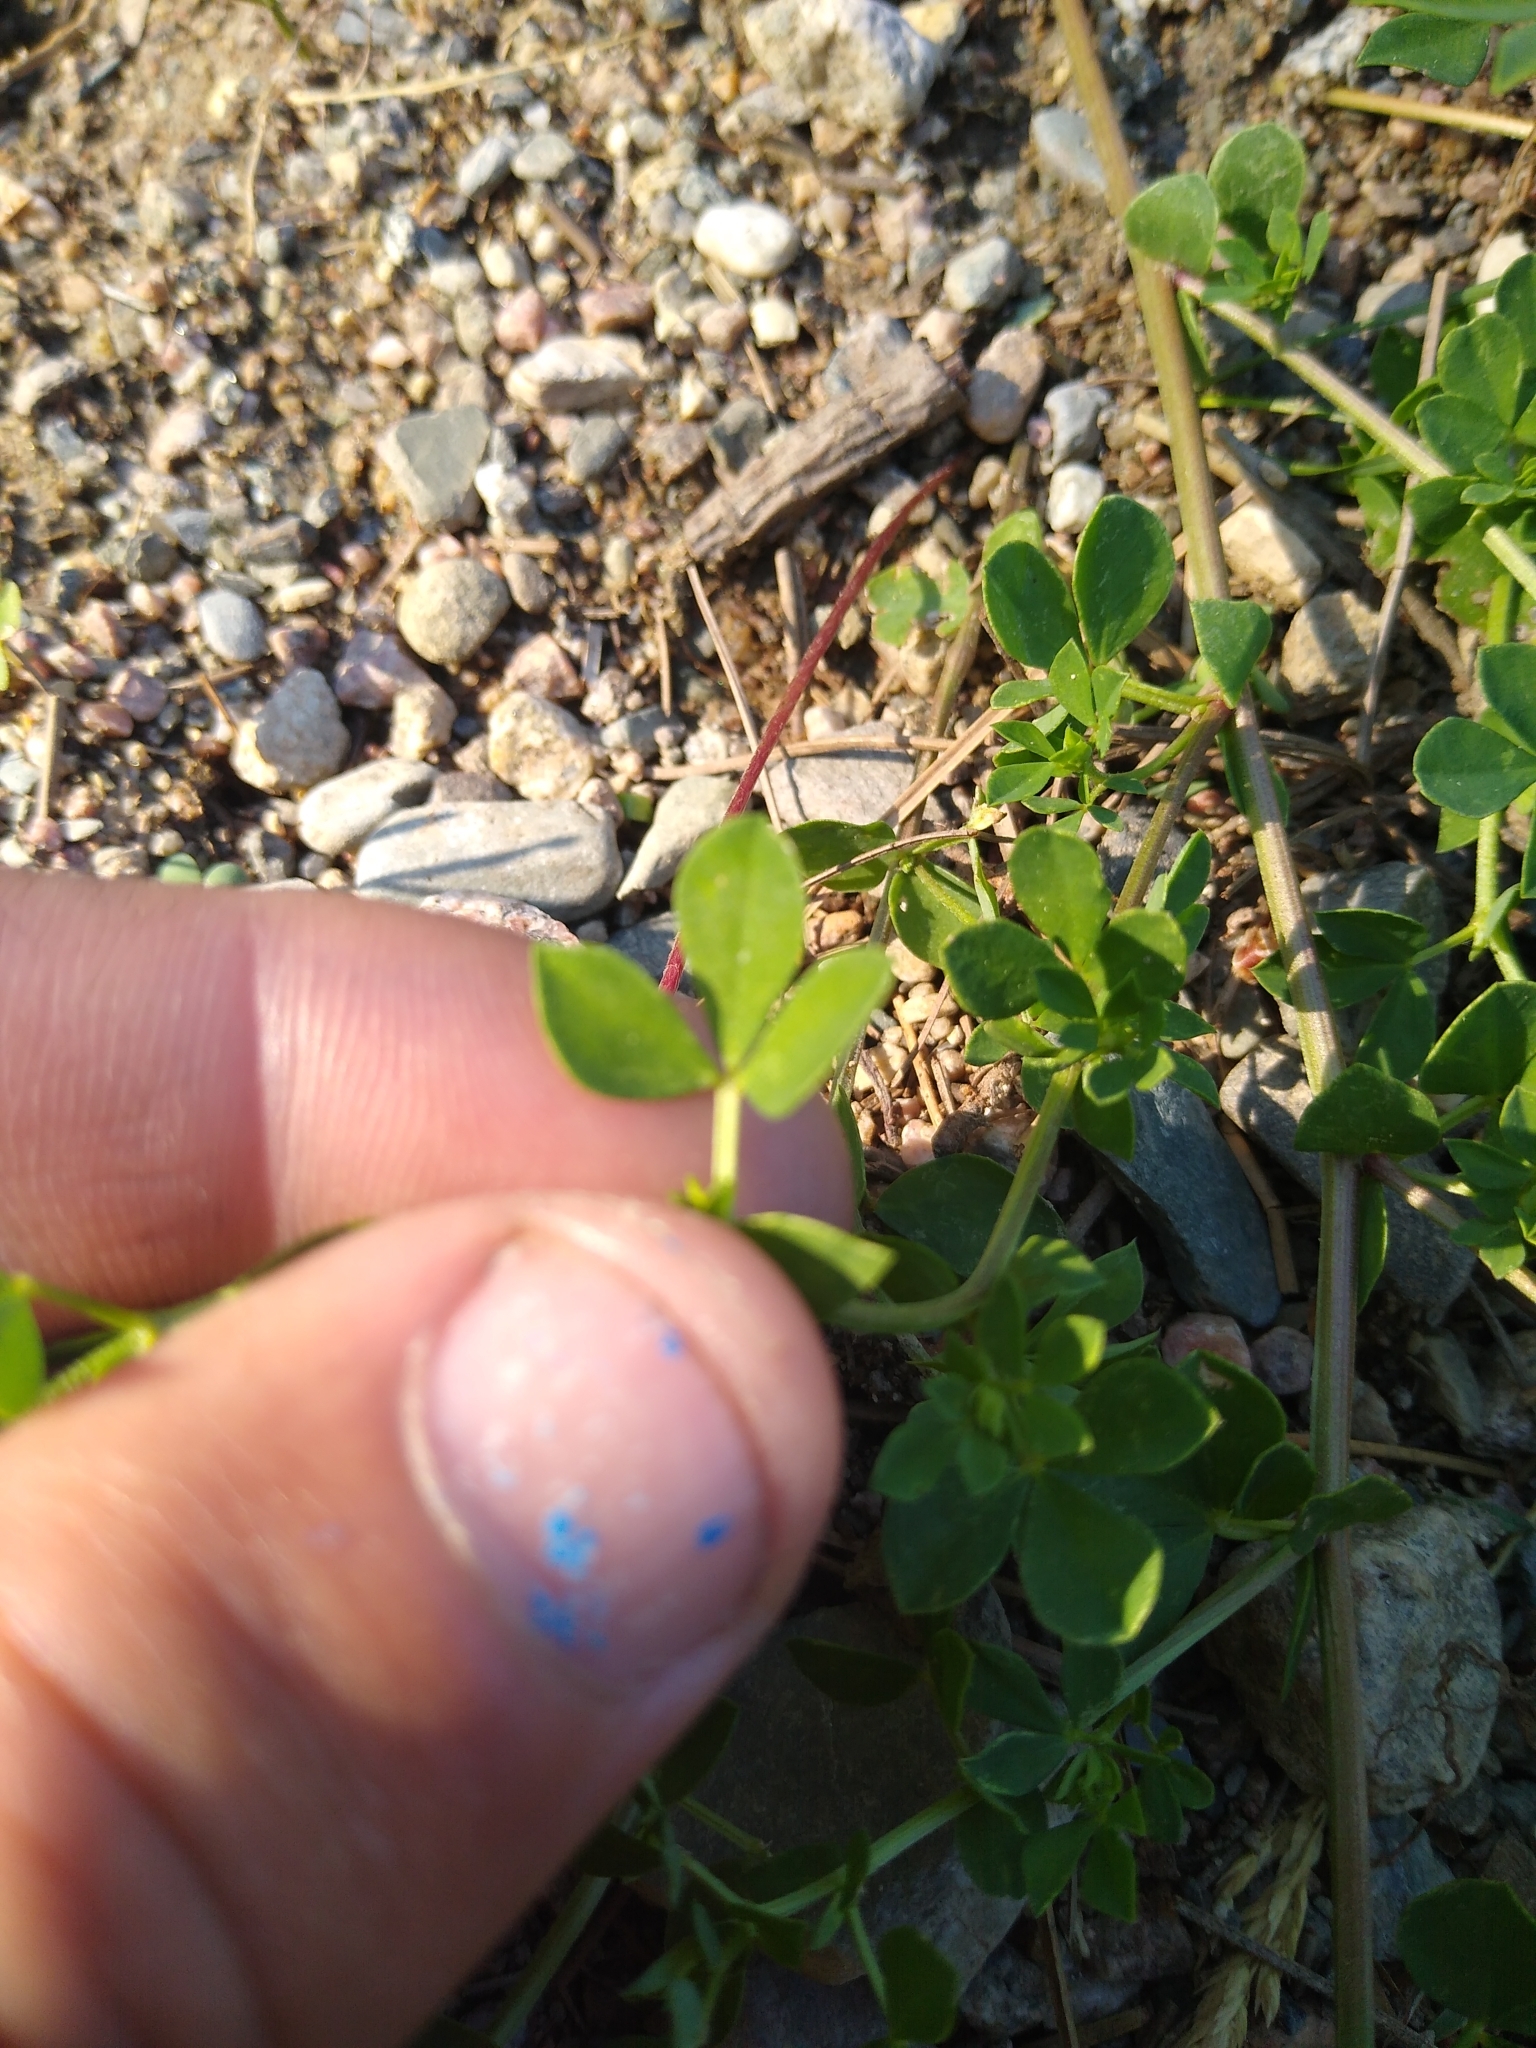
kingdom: Plantae
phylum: Tracheophyta
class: Magnoliopsida
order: Fabales
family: Fabaceae
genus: Lotus
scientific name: Lotus corniculatus
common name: Common bird's-foot-trefoil
